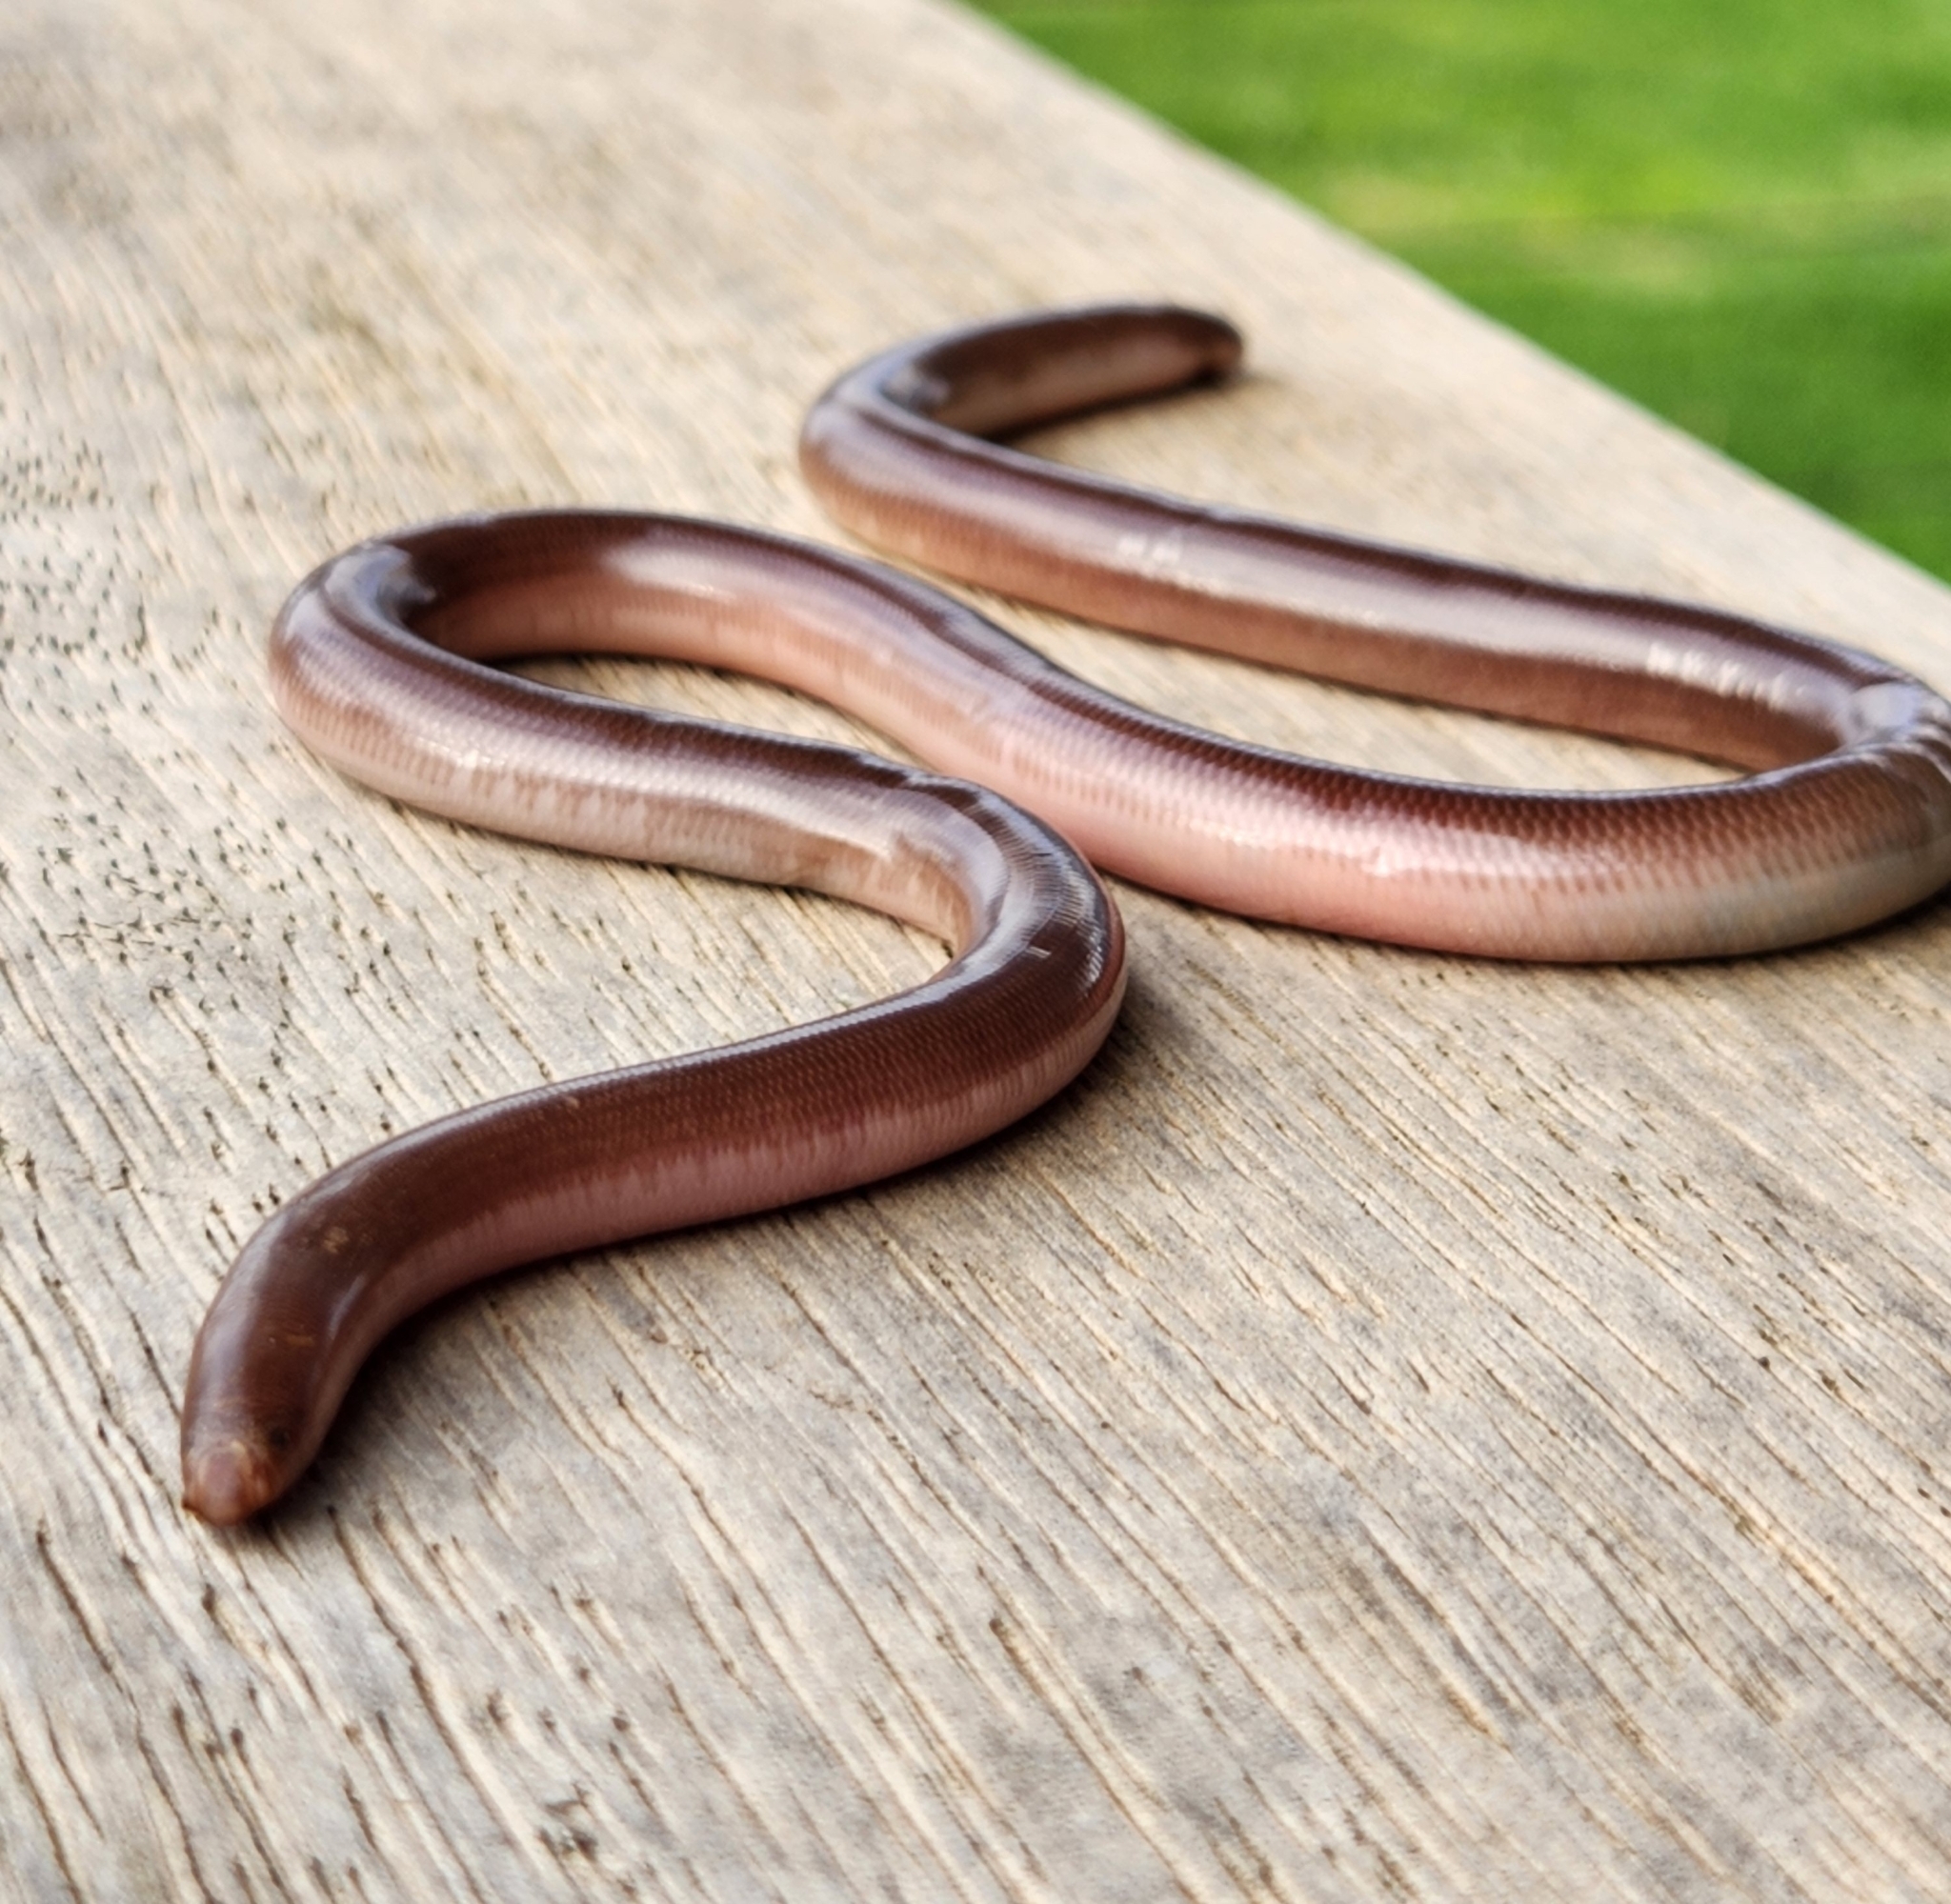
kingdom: Animalia
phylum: Chordata
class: Squamata
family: Typhlopidae
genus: Anilios
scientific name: Anilios bituberculatus
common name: Prong-snouted blind snake
